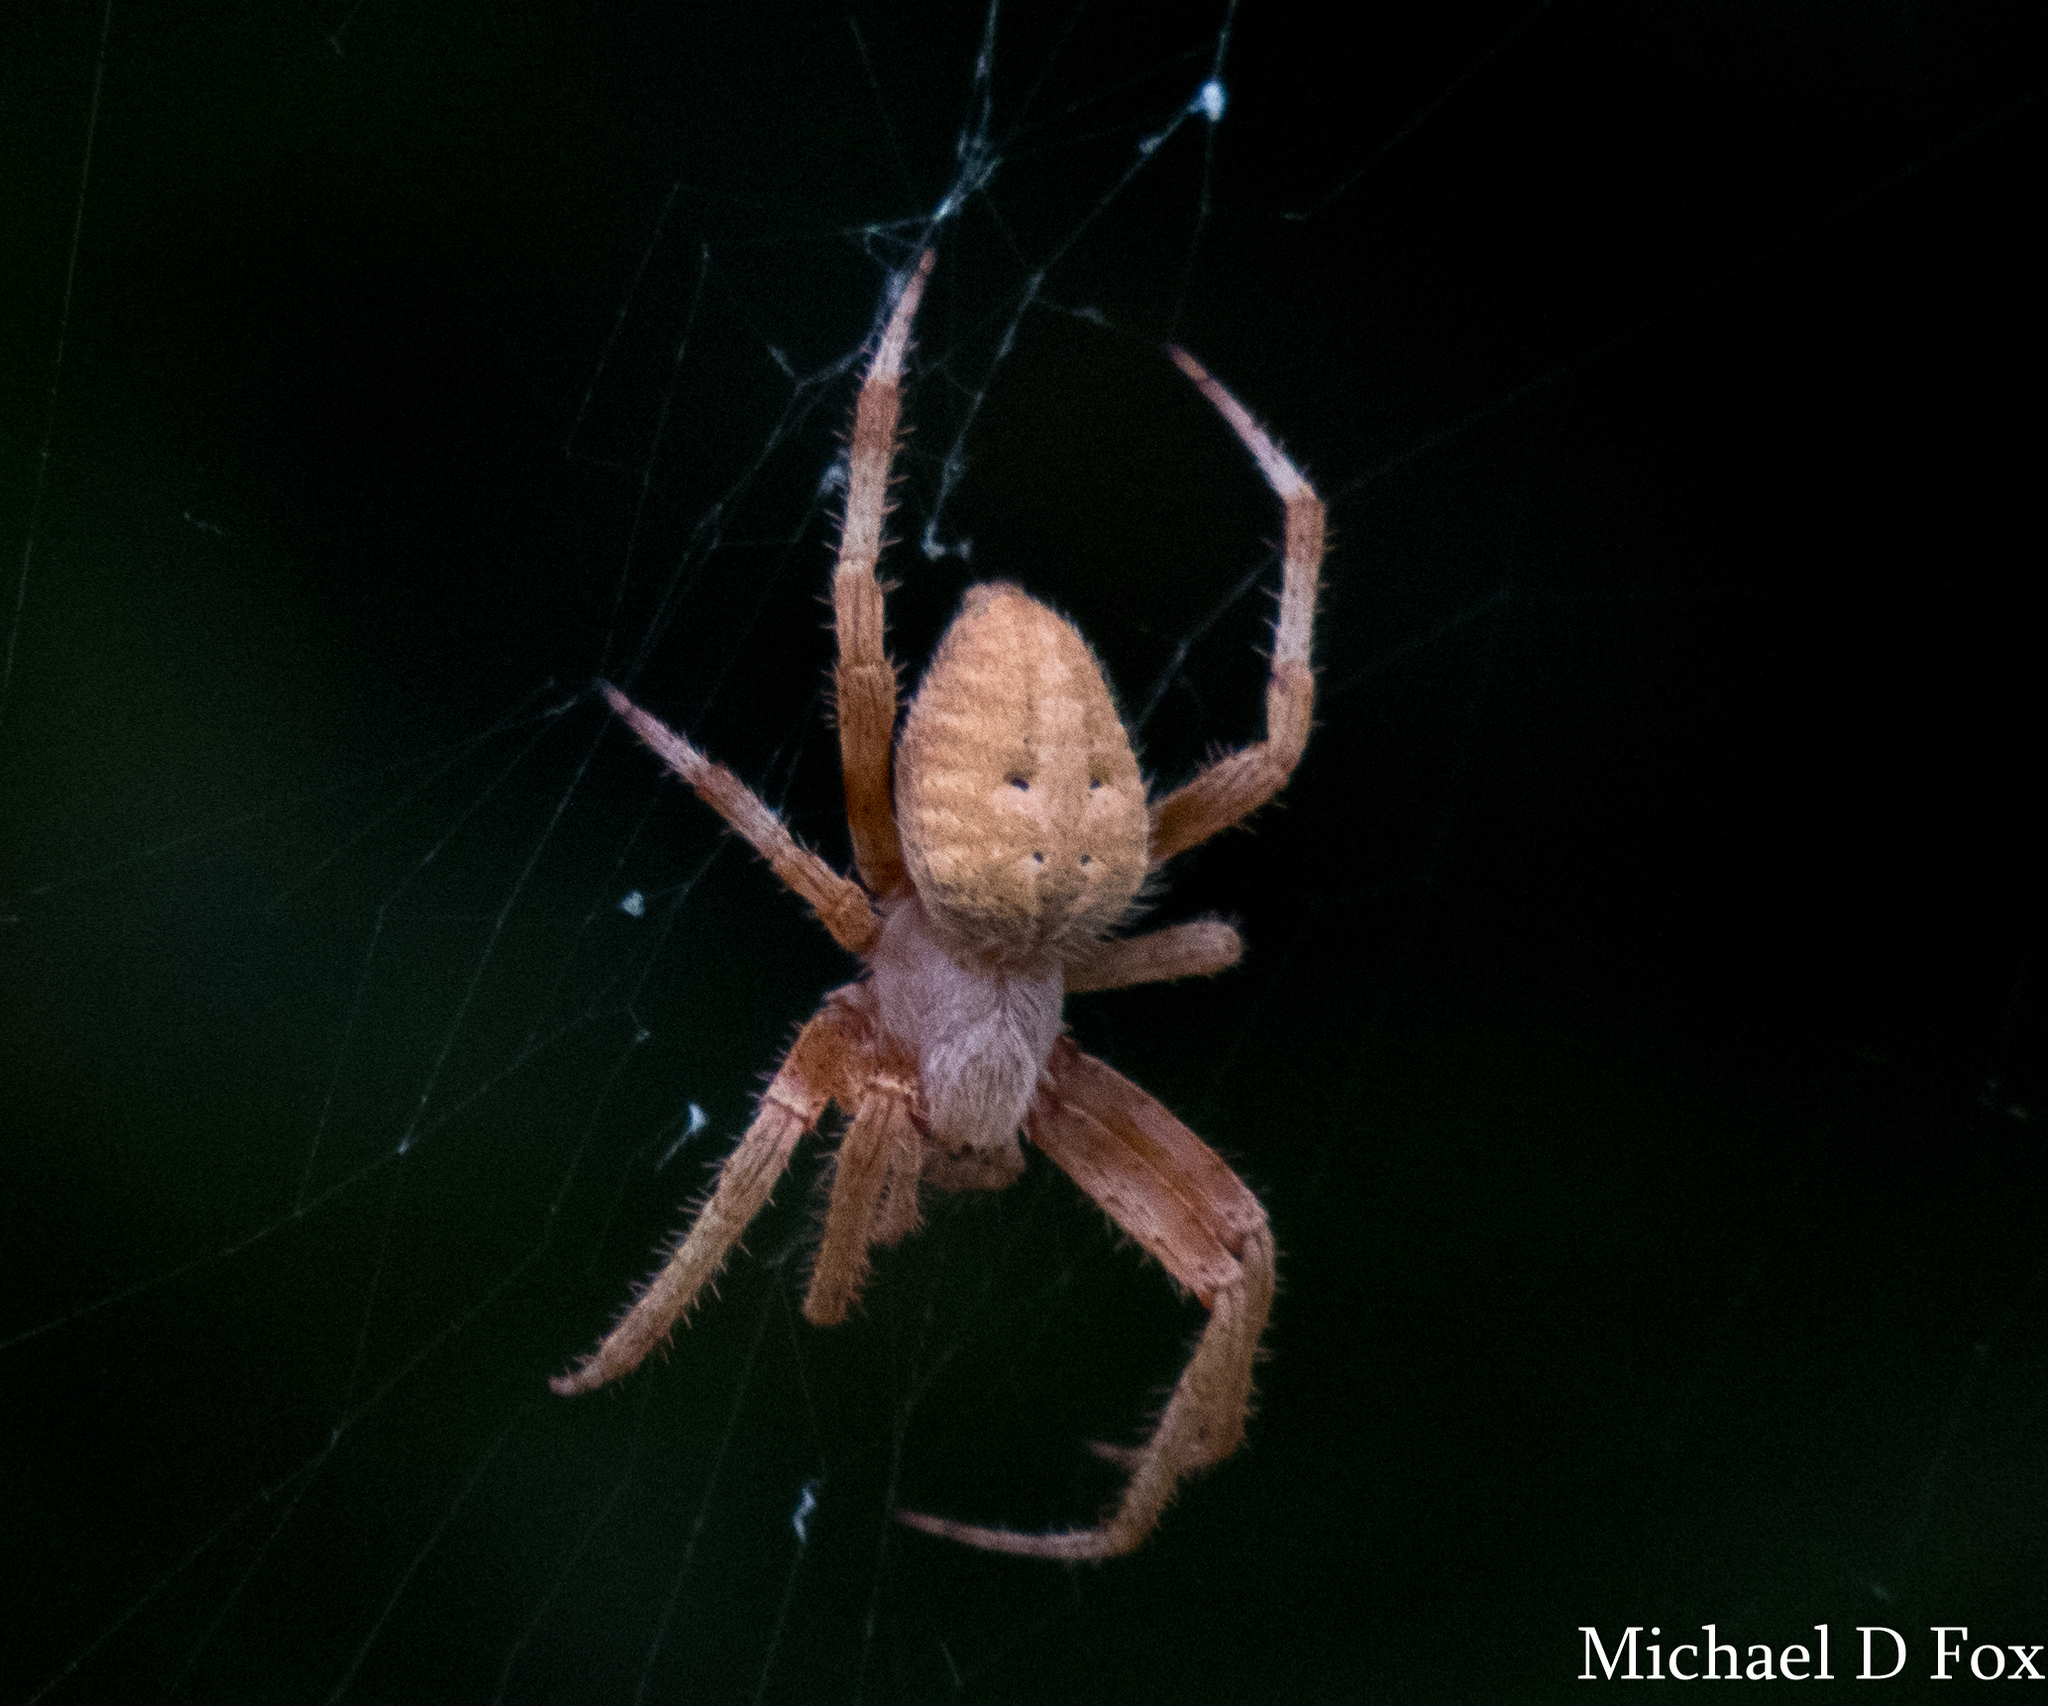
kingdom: Animalia
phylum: Arthropoda
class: Arachnida
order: Araneae
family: Araneidae
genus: Neoscona
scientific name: Neoscona crucifera
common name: Spotted orbweaver
